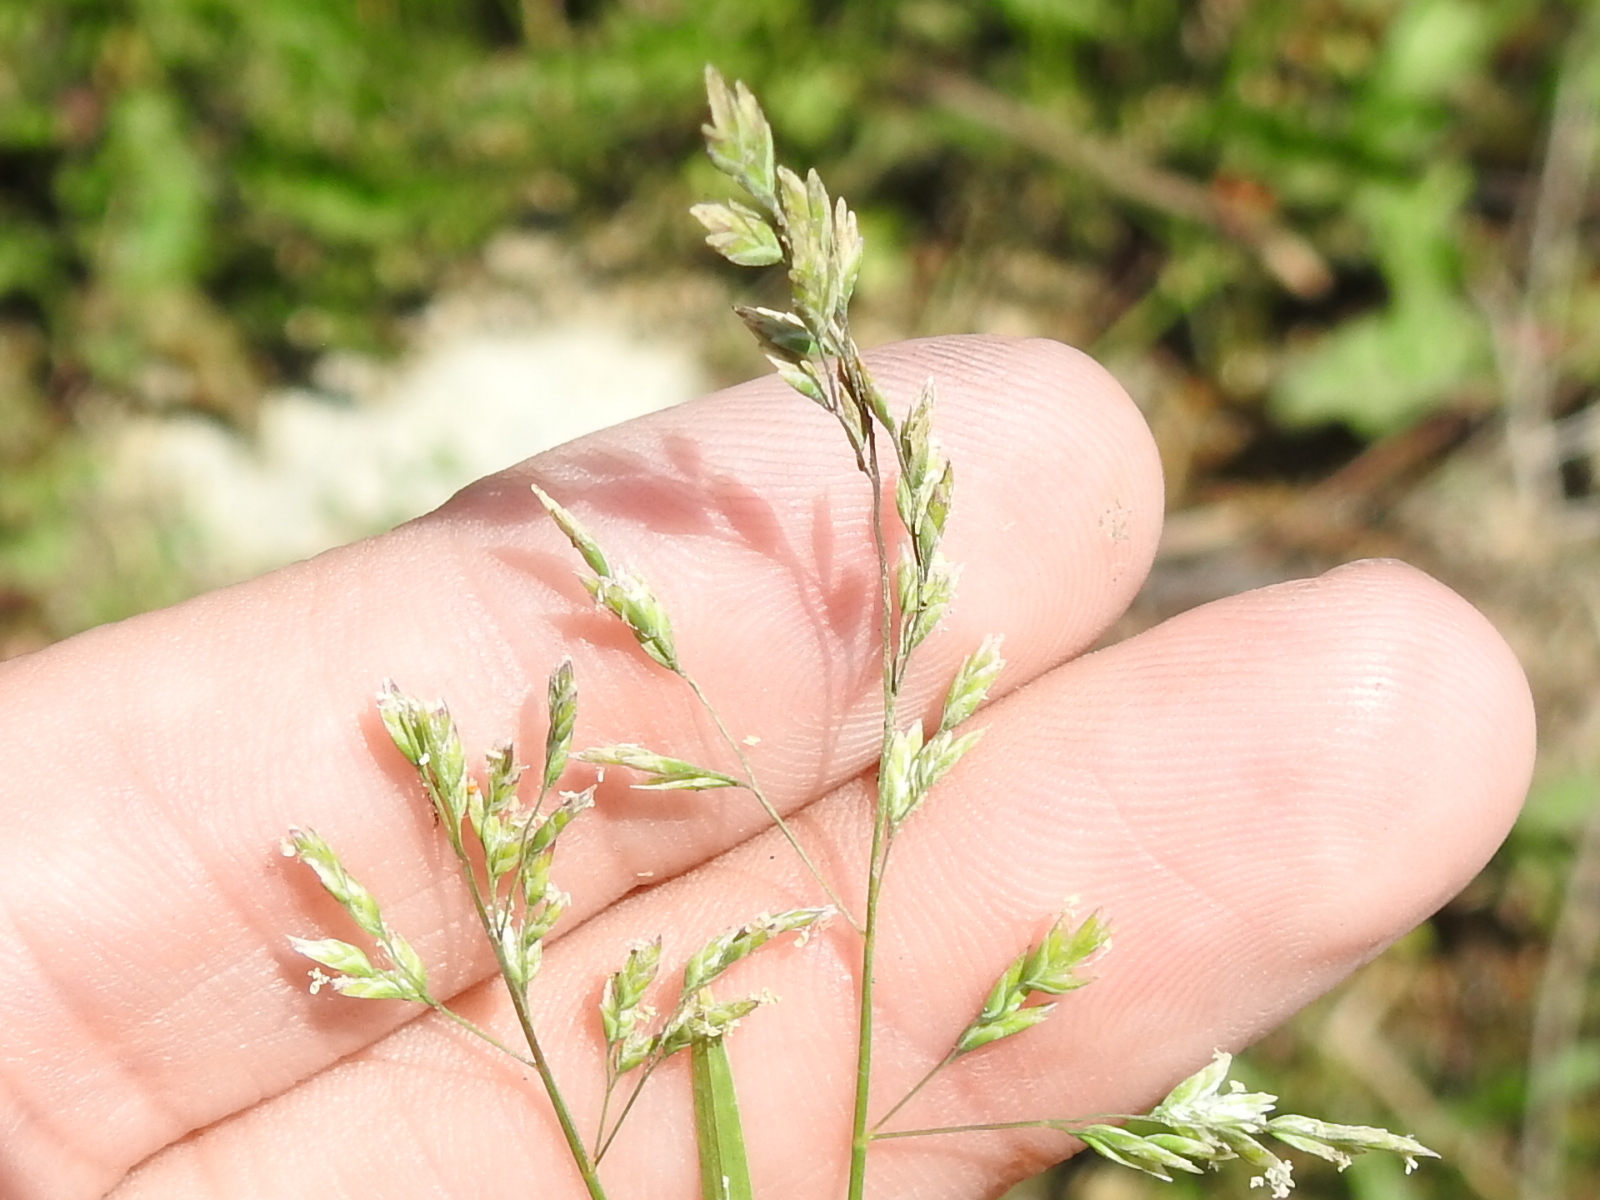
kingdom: Plantae
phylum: Tracheophyta
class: Liliopsida
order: Poales
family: Poaceae
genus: Poa
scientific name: Poa annua
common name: Annual bluegrass
